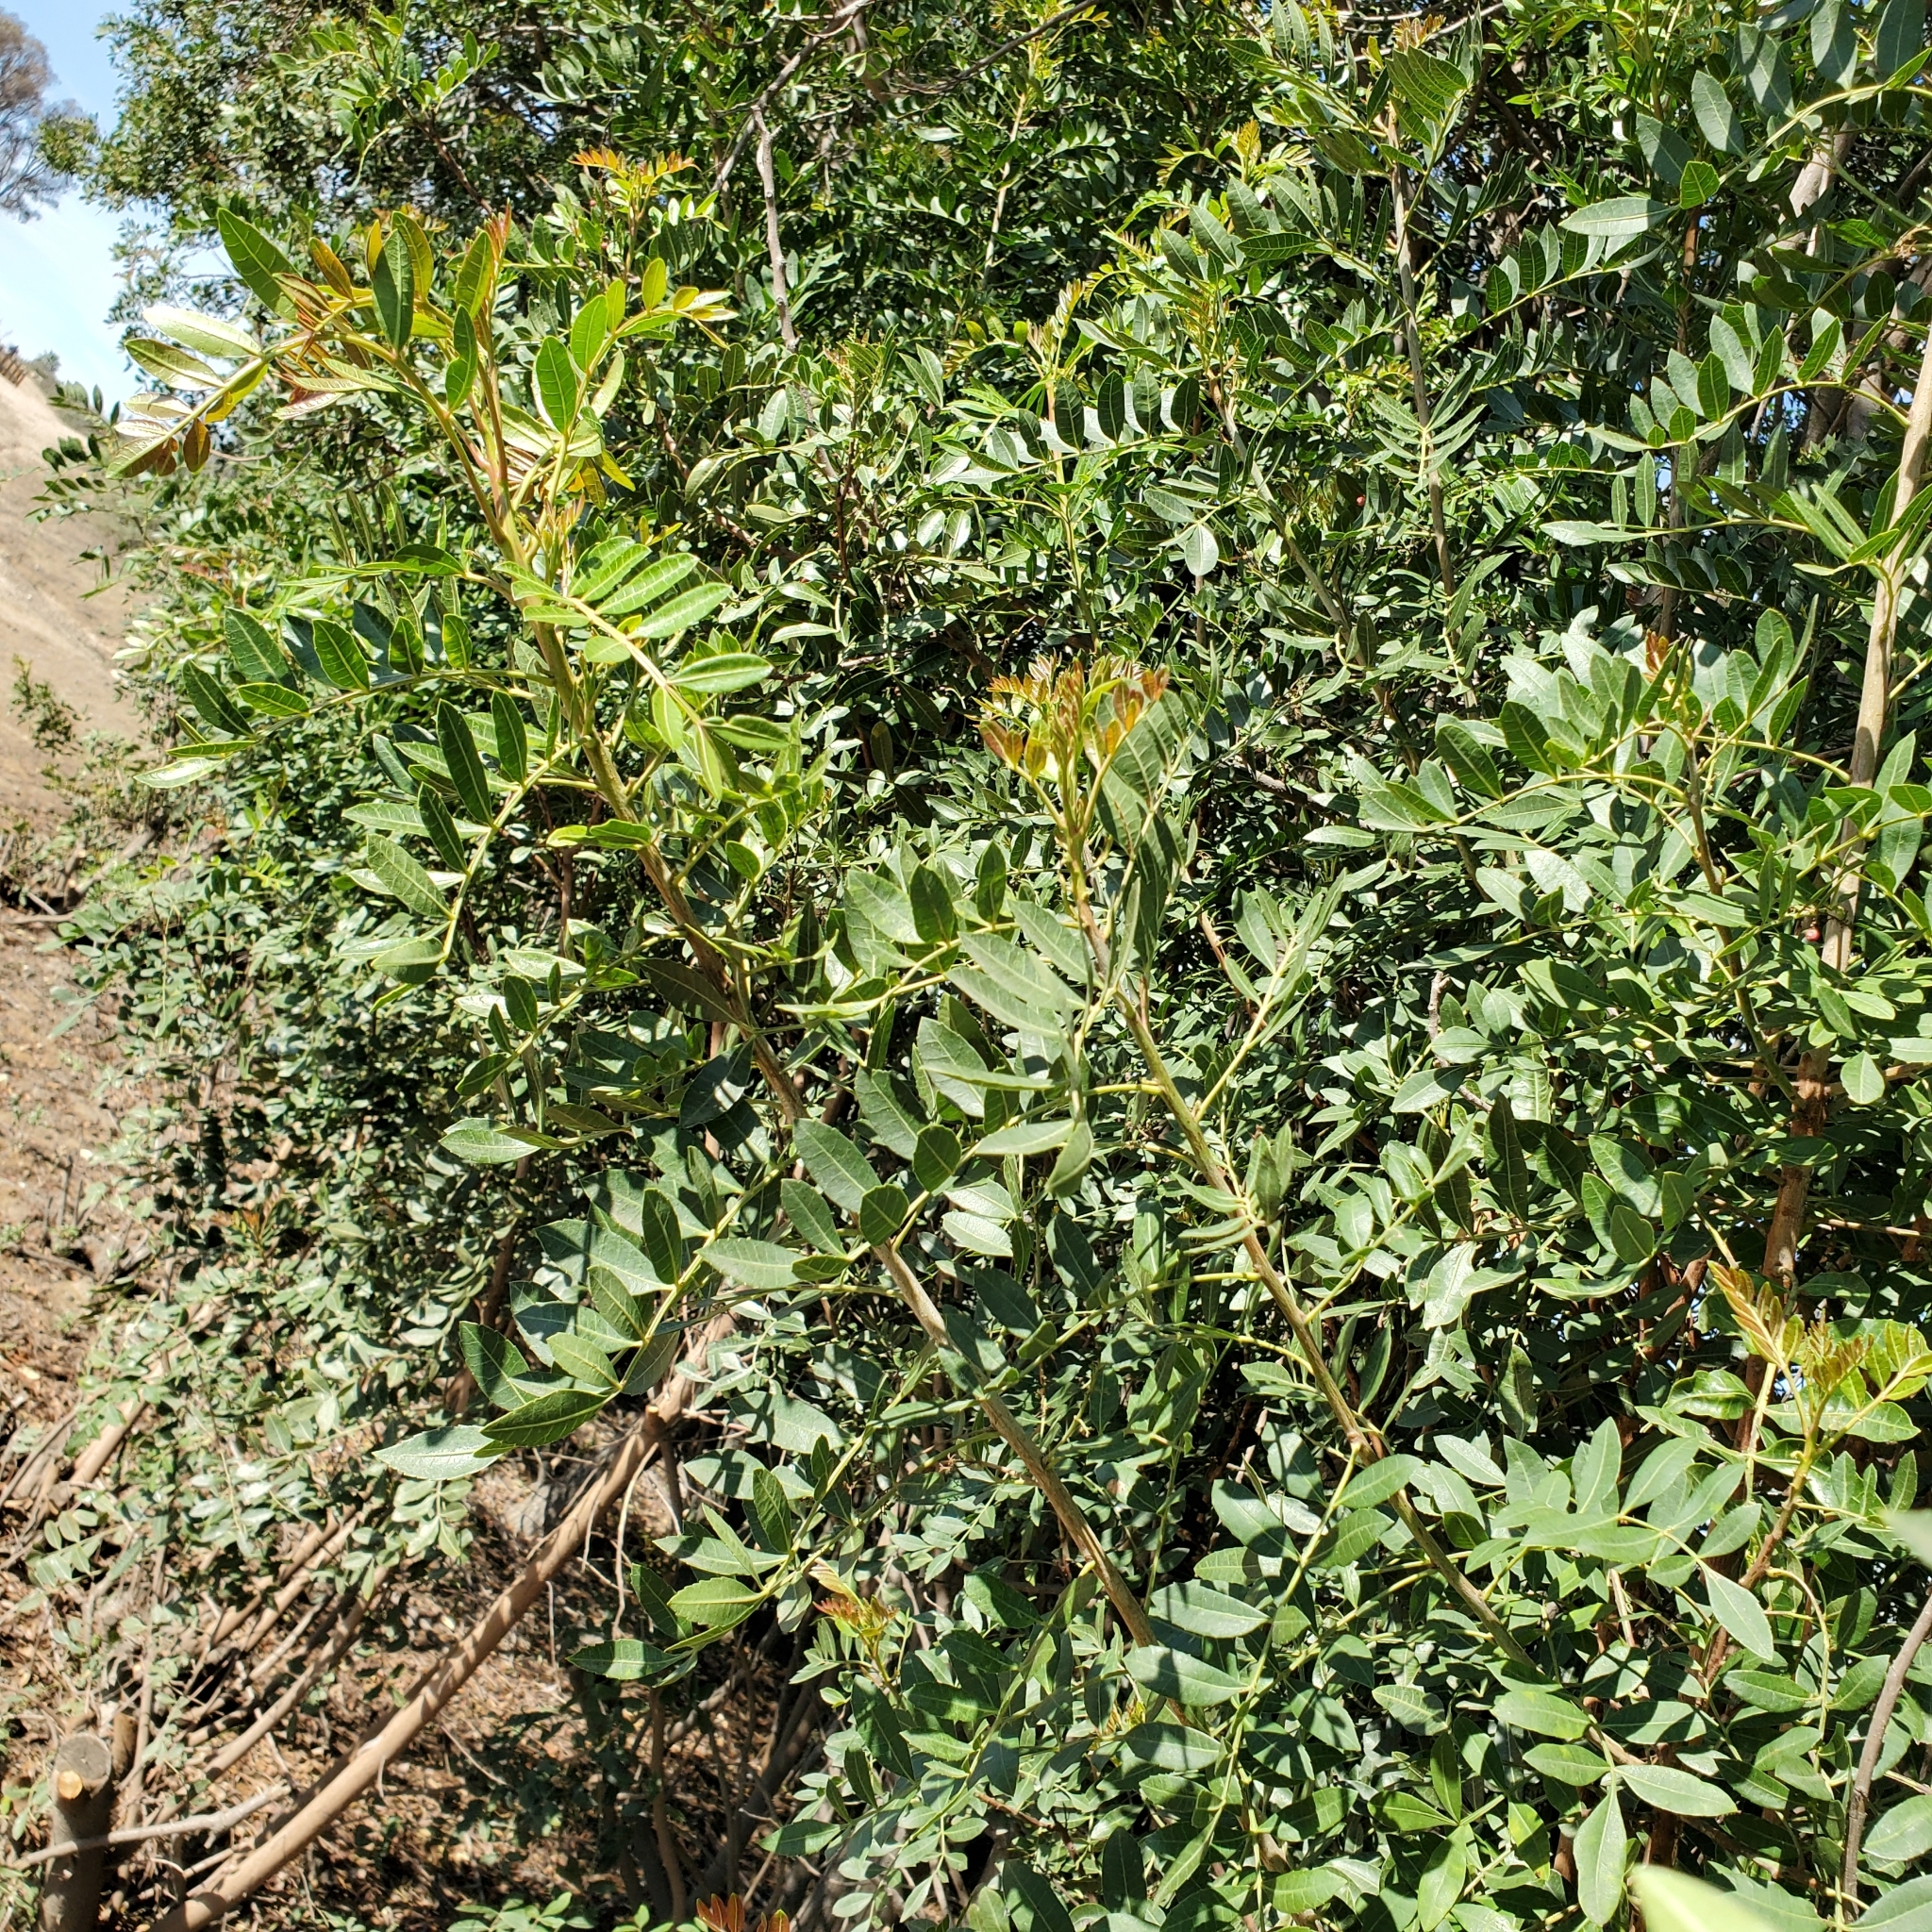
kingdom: Plantae
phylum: Tracheophyta
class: Magnoliopsida
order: Sapindales
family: Anacardiaceae
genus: Schinus
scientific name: Schinus terebinthifolia
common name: Brazilian peppertree
